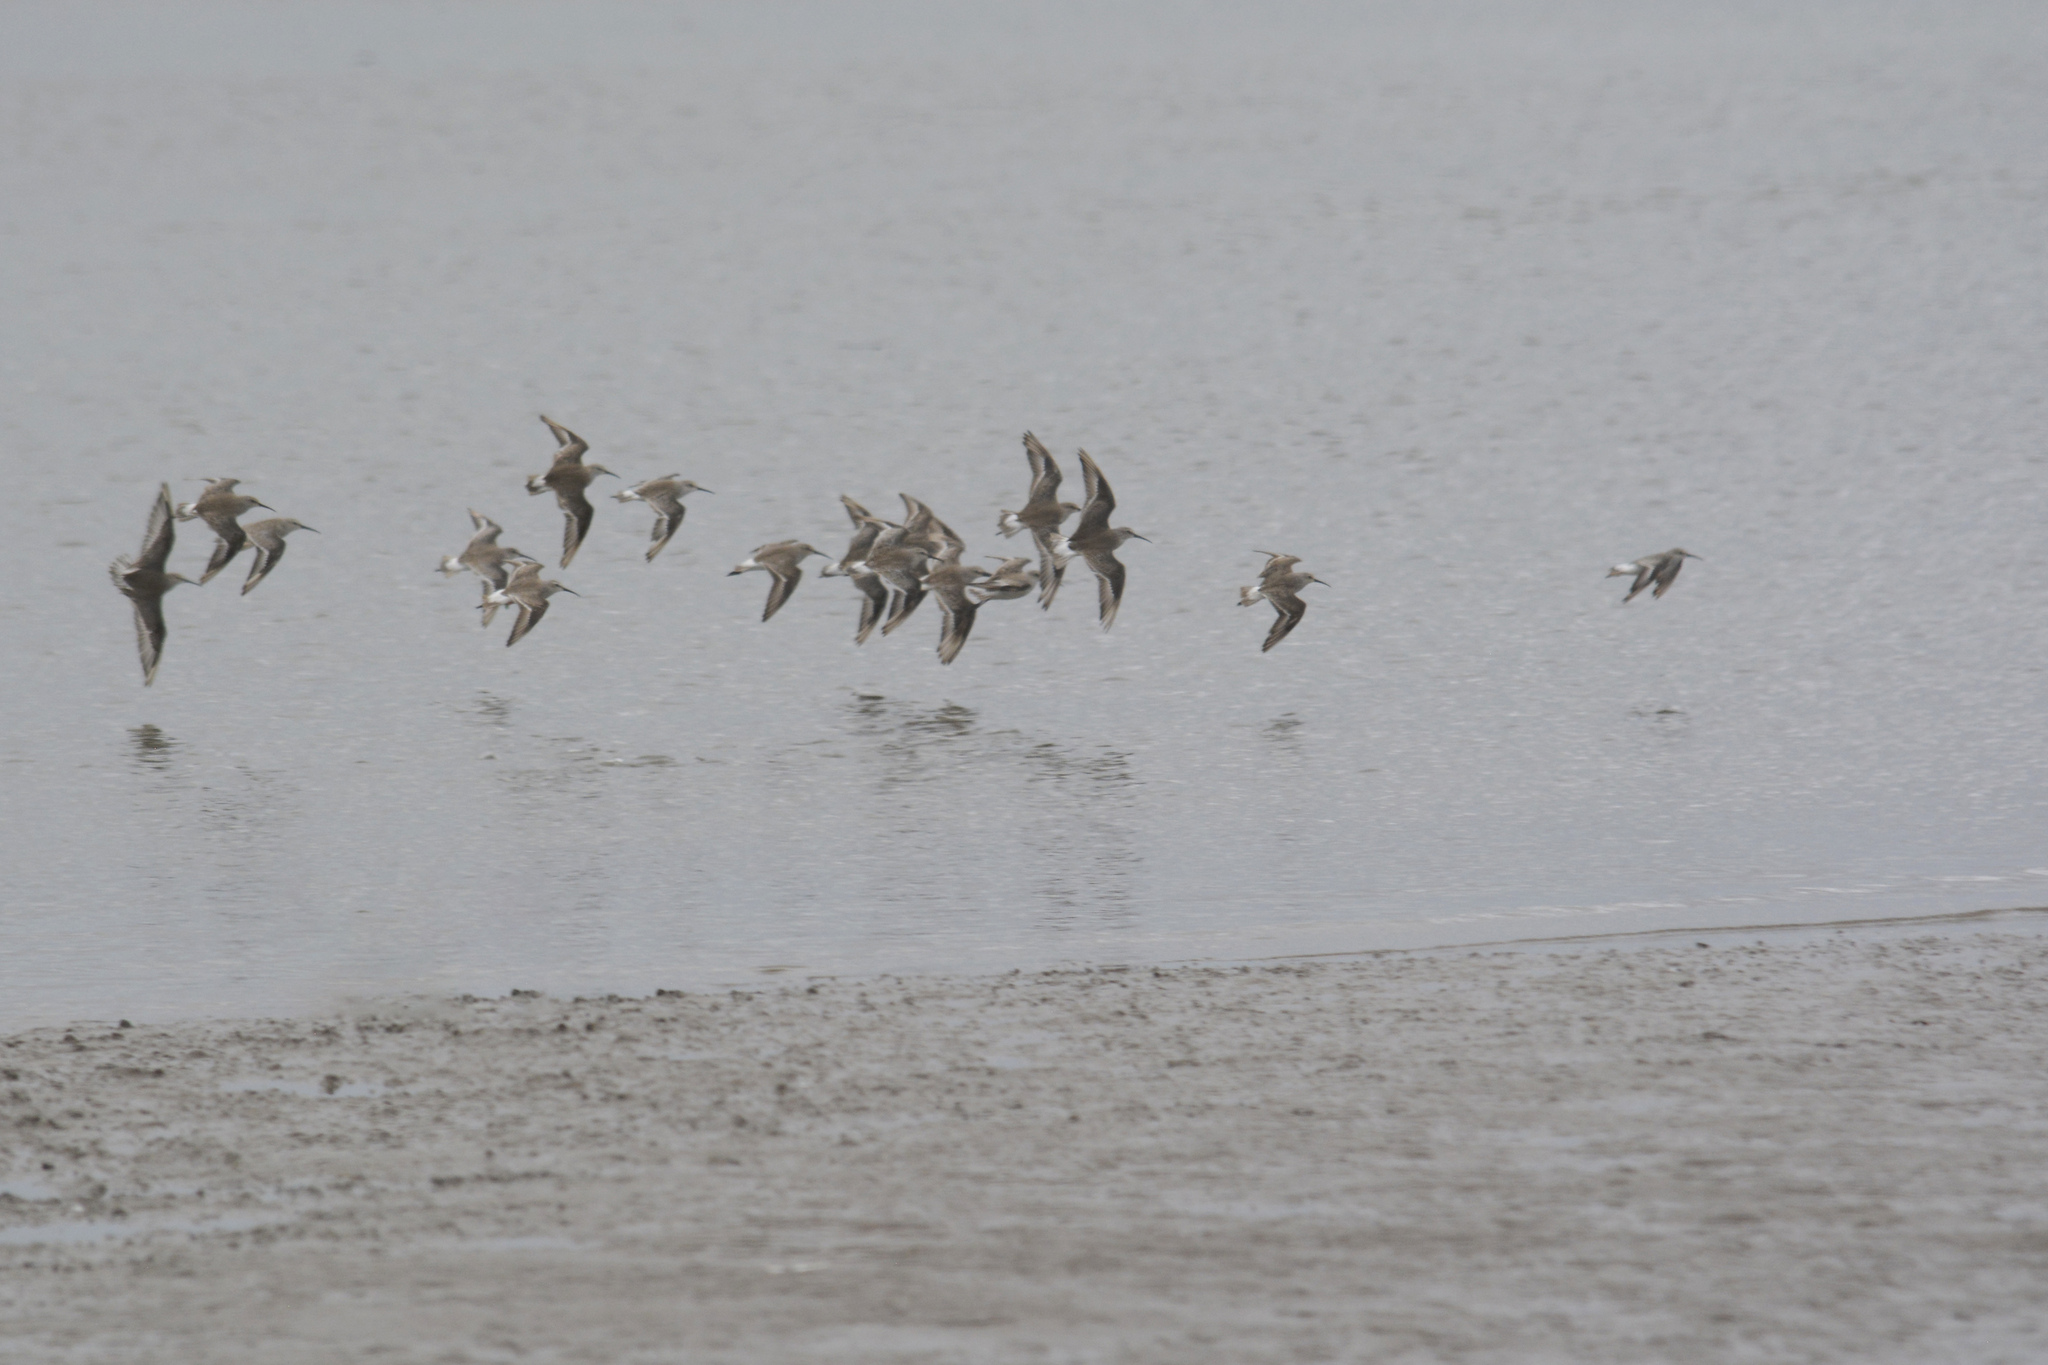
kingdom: Animalia
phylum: Chordata
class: Aves
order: Charadriiformes
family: Scolopacidae
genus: Calidris
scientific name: Calidris ferruginea
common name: Curlew sandpiper
